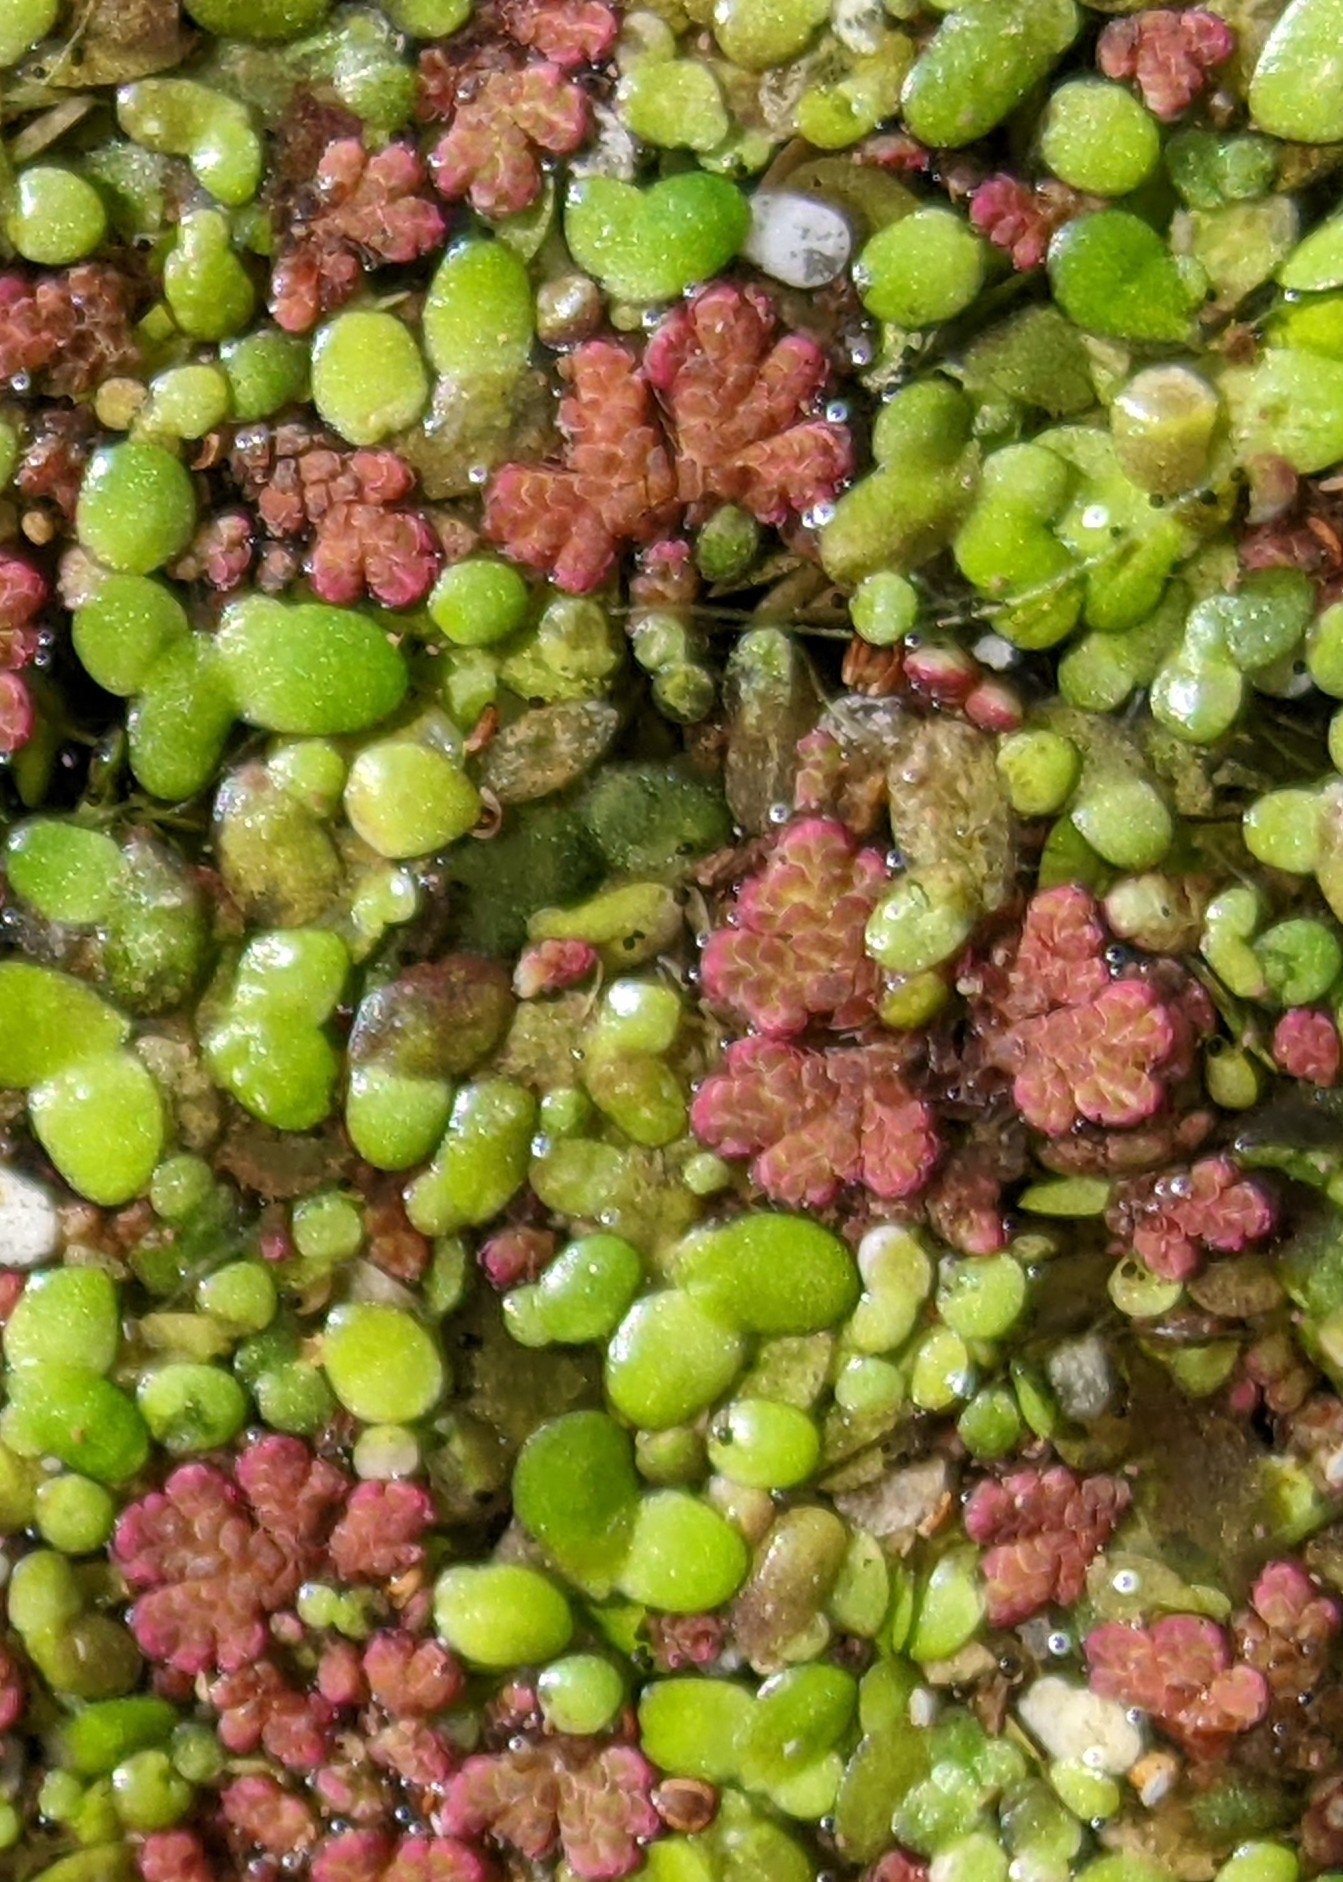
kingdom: Plantae
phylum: Tracheophyta
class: Polypodiopsida
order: Salviniales
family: Salviniaceae
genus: Azolla
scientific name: Azolla filiculoides
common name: Water fern
